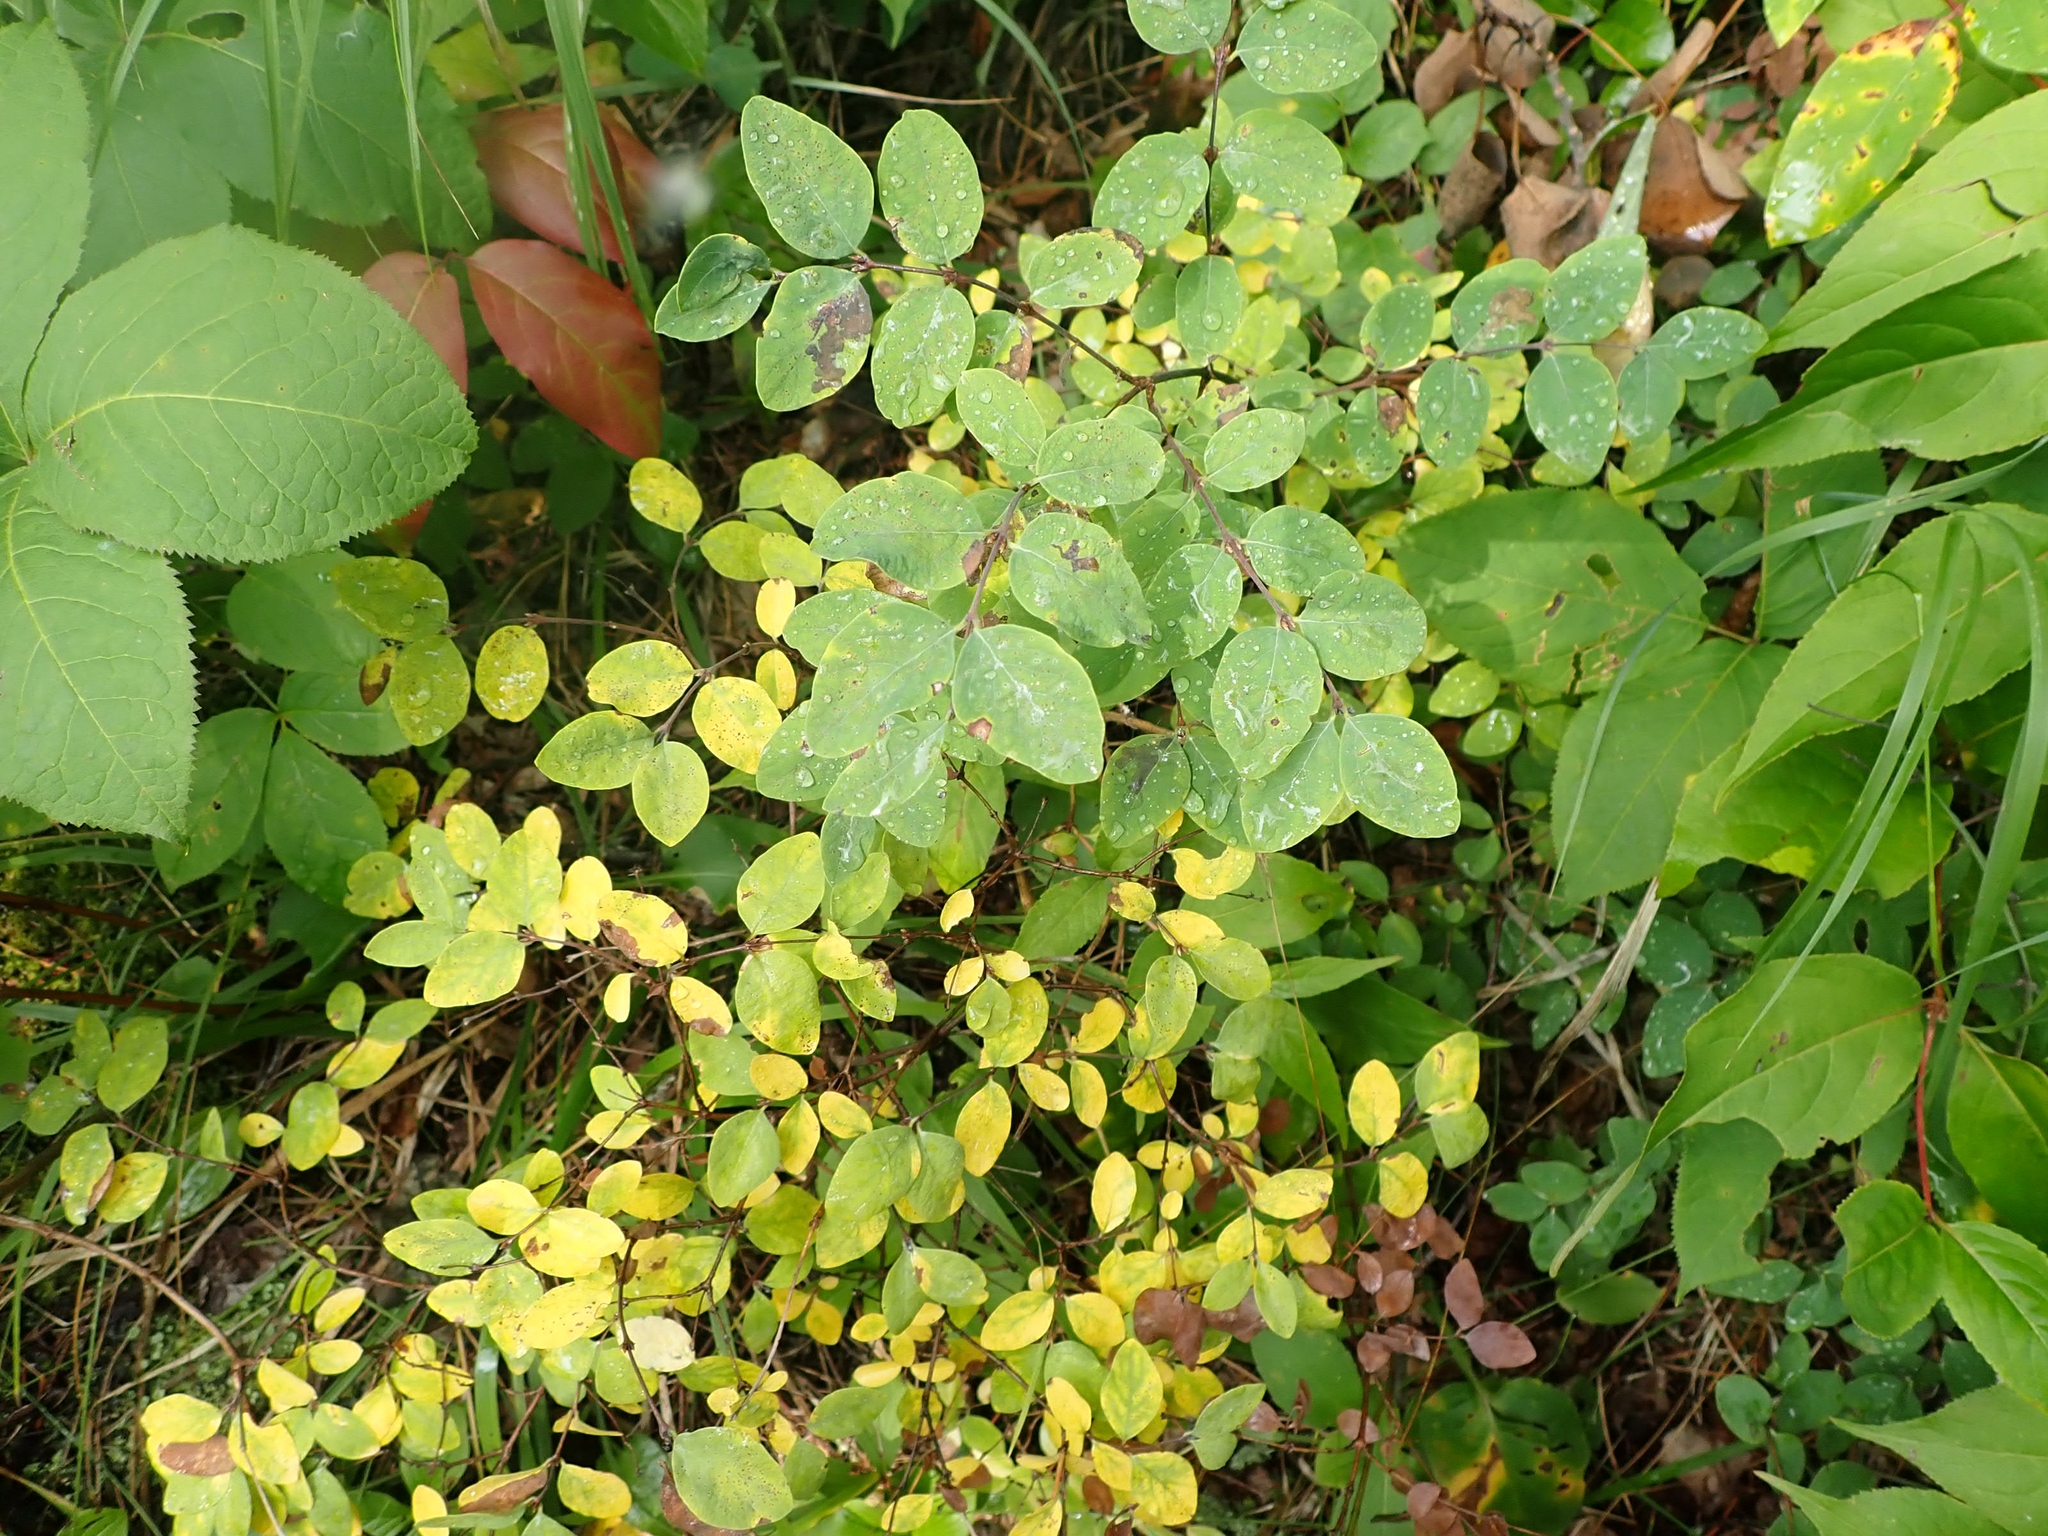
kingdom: Plantae
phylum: Tracheophyta
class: Magnoliopsida
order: Dipsacales
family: Caprifoliaceae
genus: Symphoricarpos
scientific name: Symphoricarpos occidentalis
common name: Wolfberry
